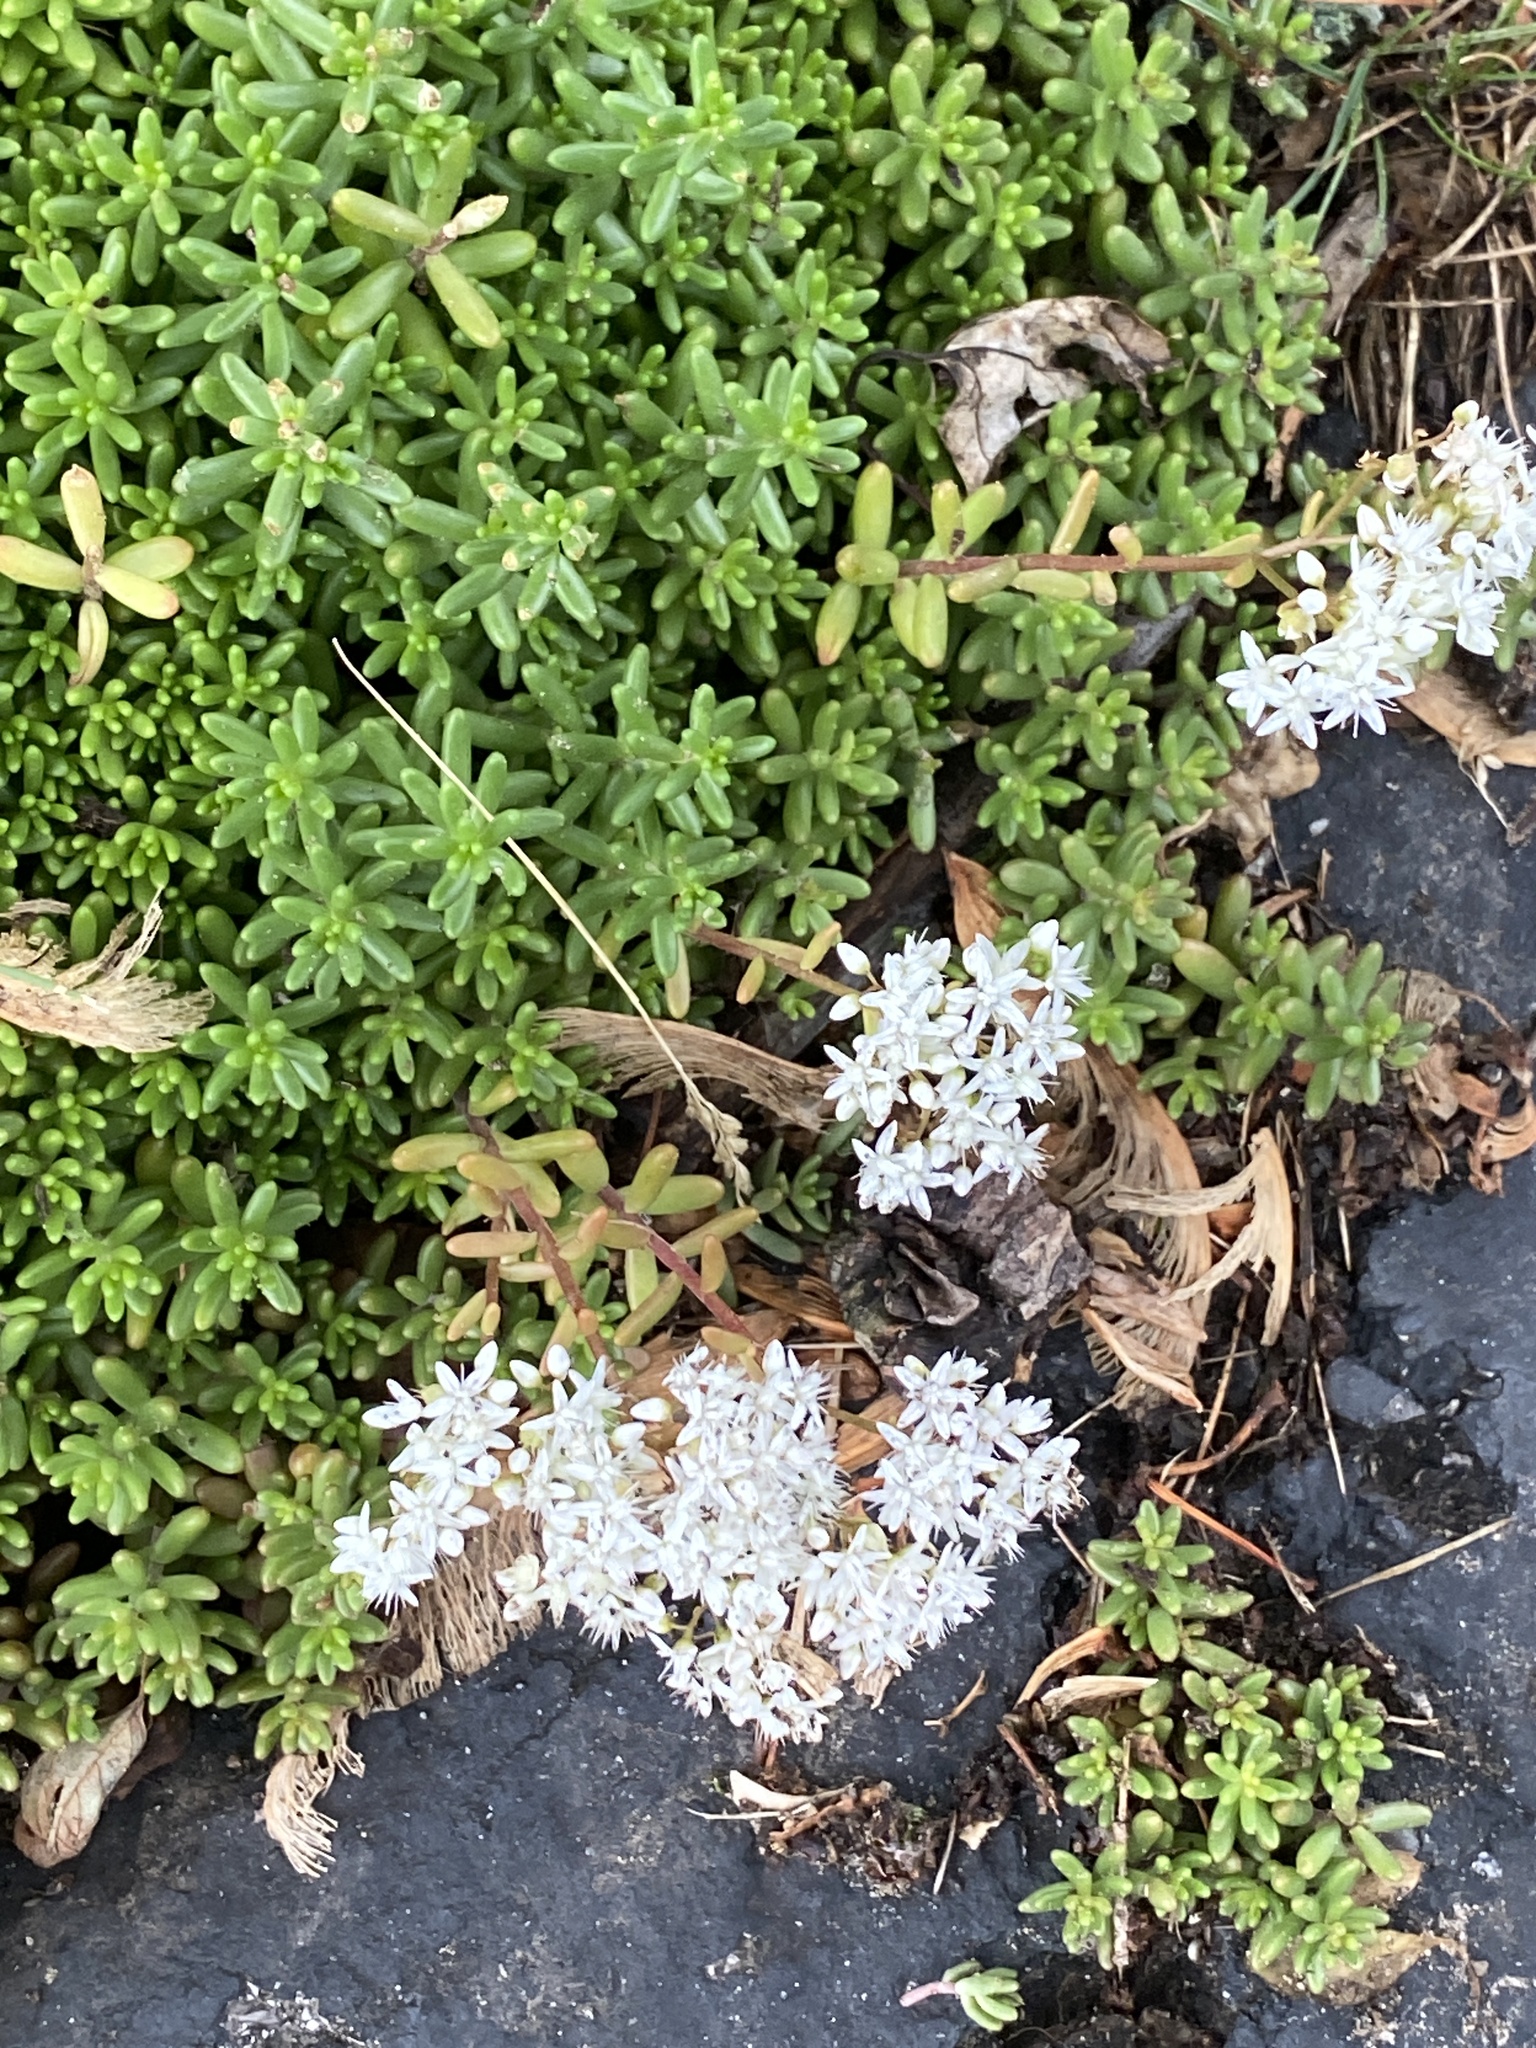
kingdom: Plantae
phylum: Tracheophyta
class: Magnoliopsida
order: Saxifragales
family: Crassulaceae
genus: Sedum
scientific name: Sedum album
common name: White stonecrop
